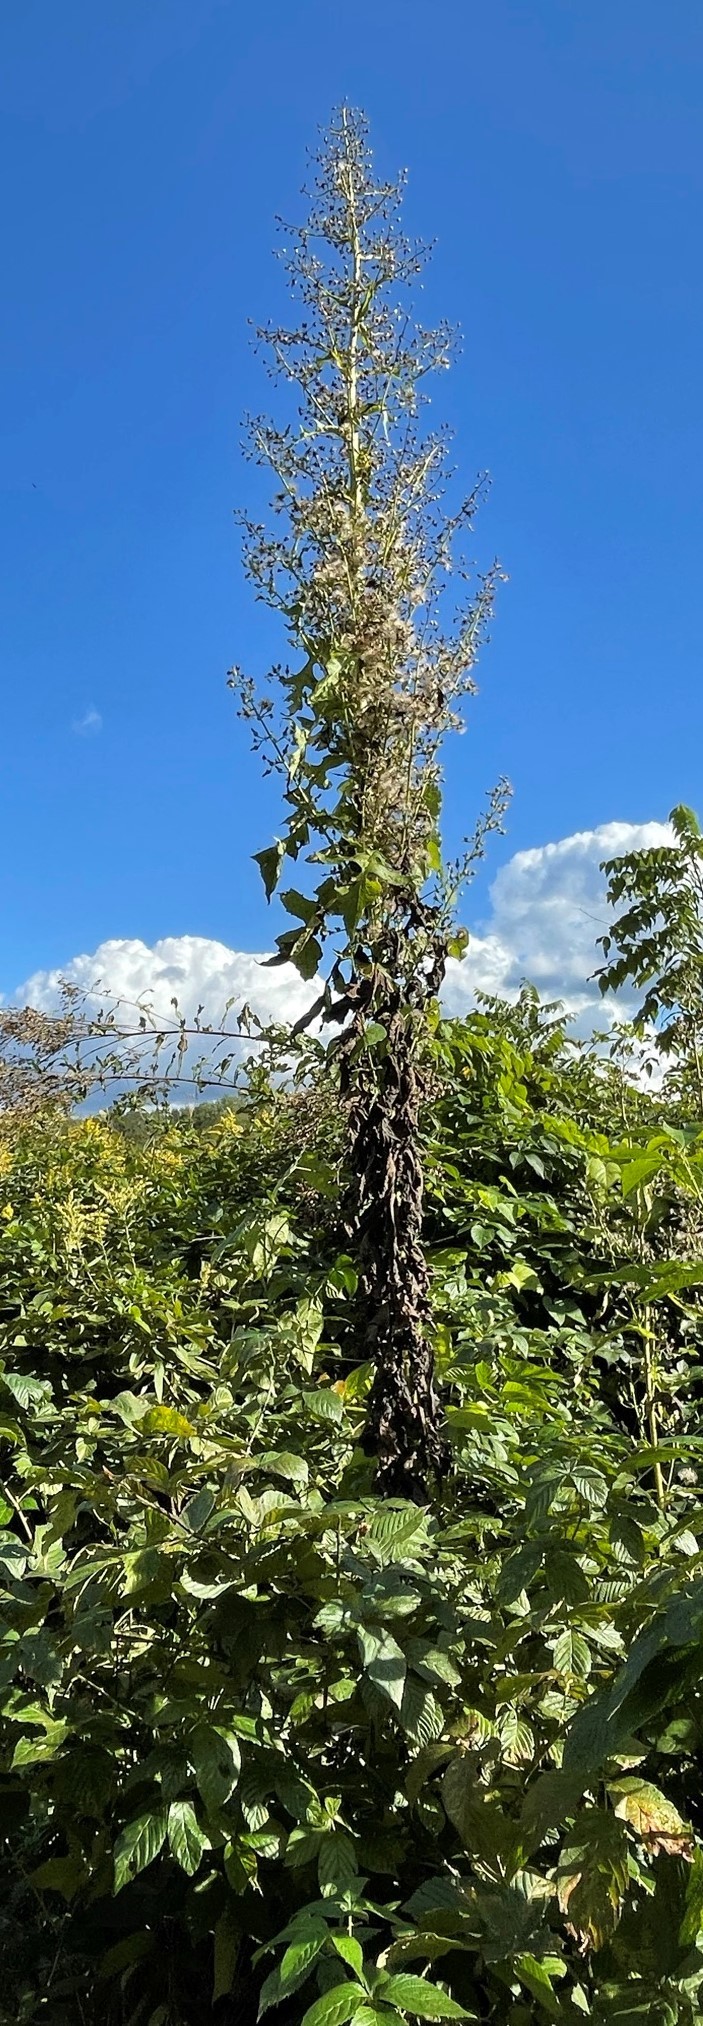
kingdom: Plantae
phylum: Tracheophyta
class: Magnoliopsida
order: Asterales
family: Asteraceae
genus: Lactuca
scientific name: Lactuca biennis
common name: Blue wood lettuce
